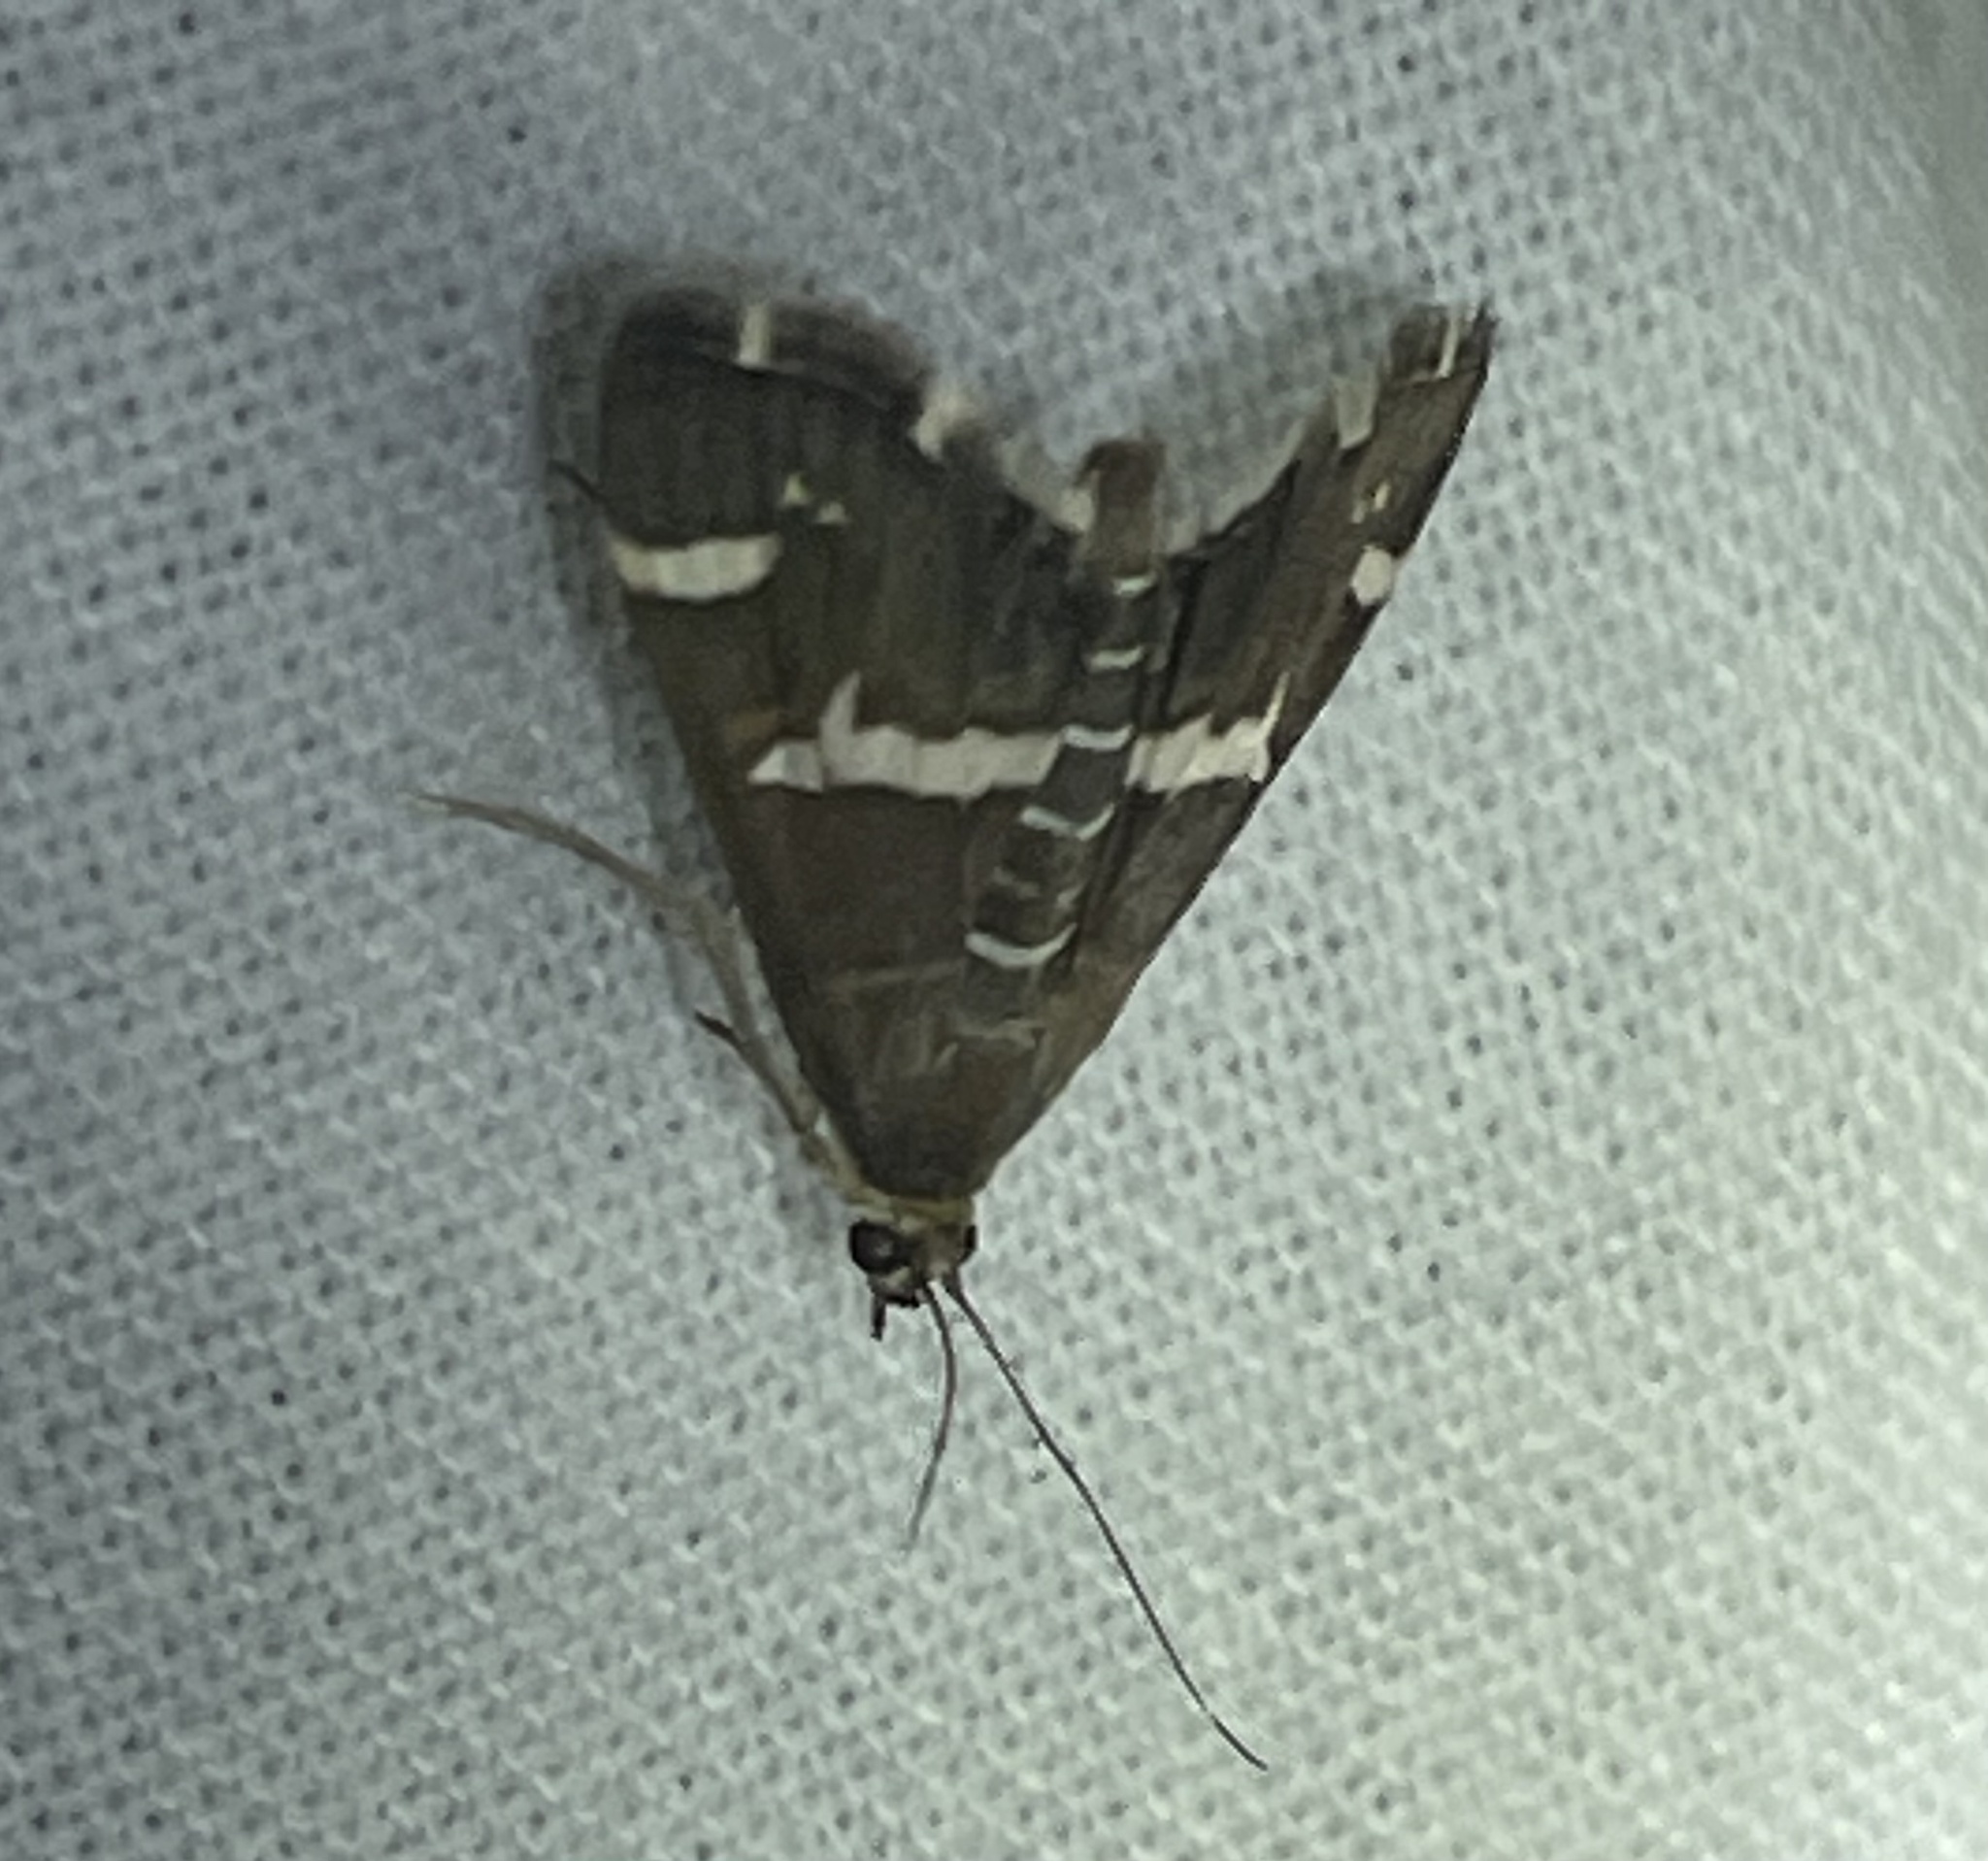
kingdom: Animalia
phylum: Arthropoda
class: Insecta
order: Lepidoptera
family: Crambidae
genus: Spoladea
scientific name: Spoladea recurvalis
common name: Beet webworm moth
